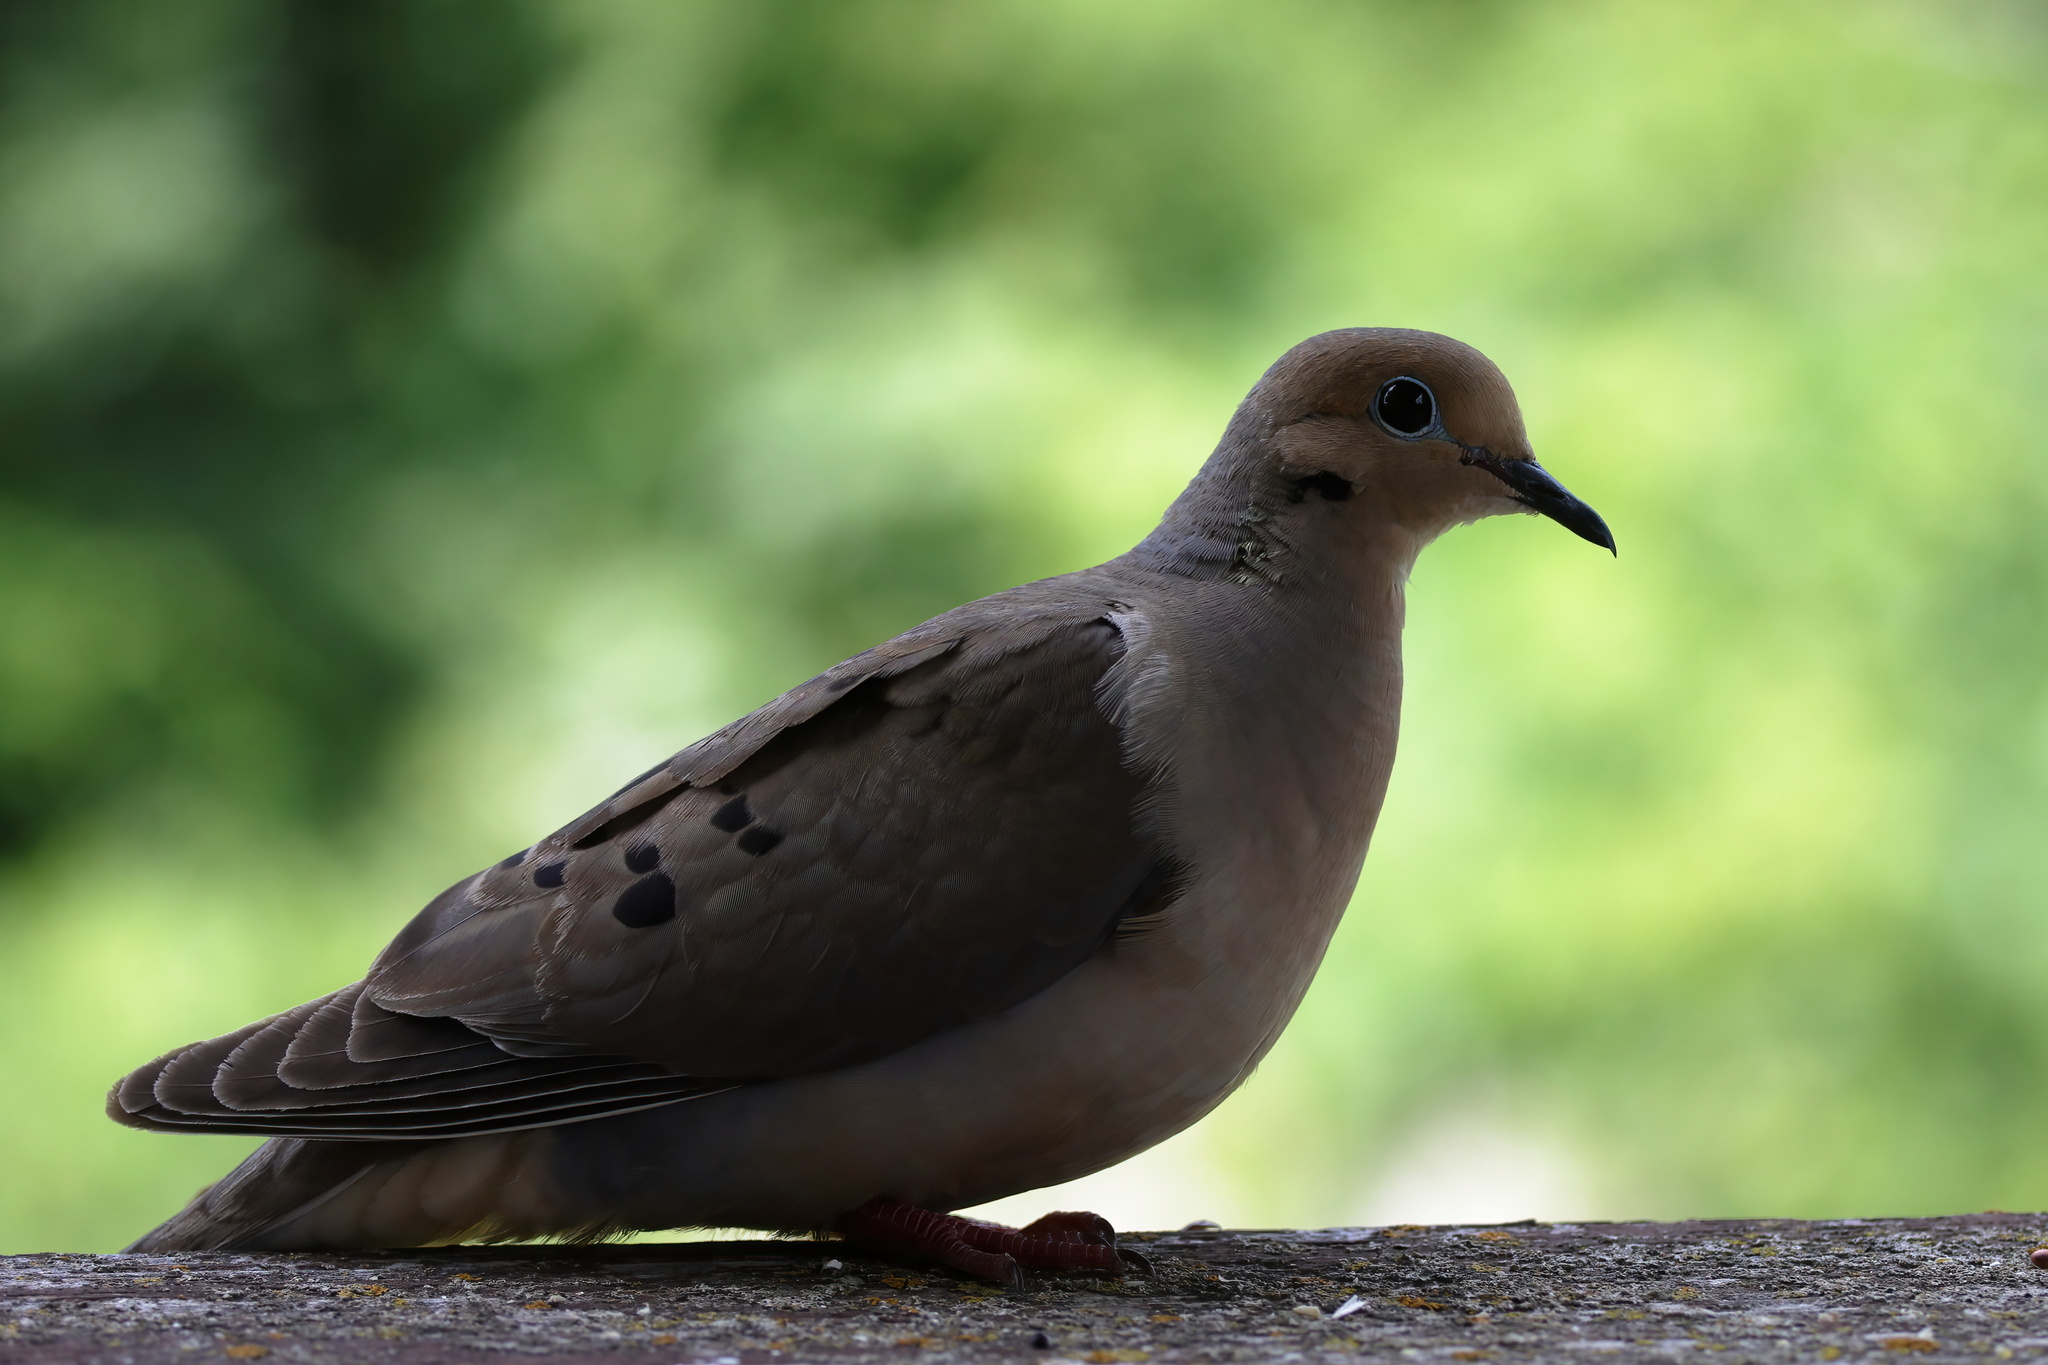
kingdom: Animalia
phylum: Chordata
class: Aves
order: Columbiformes
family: Columbidae
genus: Zenaida
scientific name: Zenaida macroura
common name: Mourning dove
